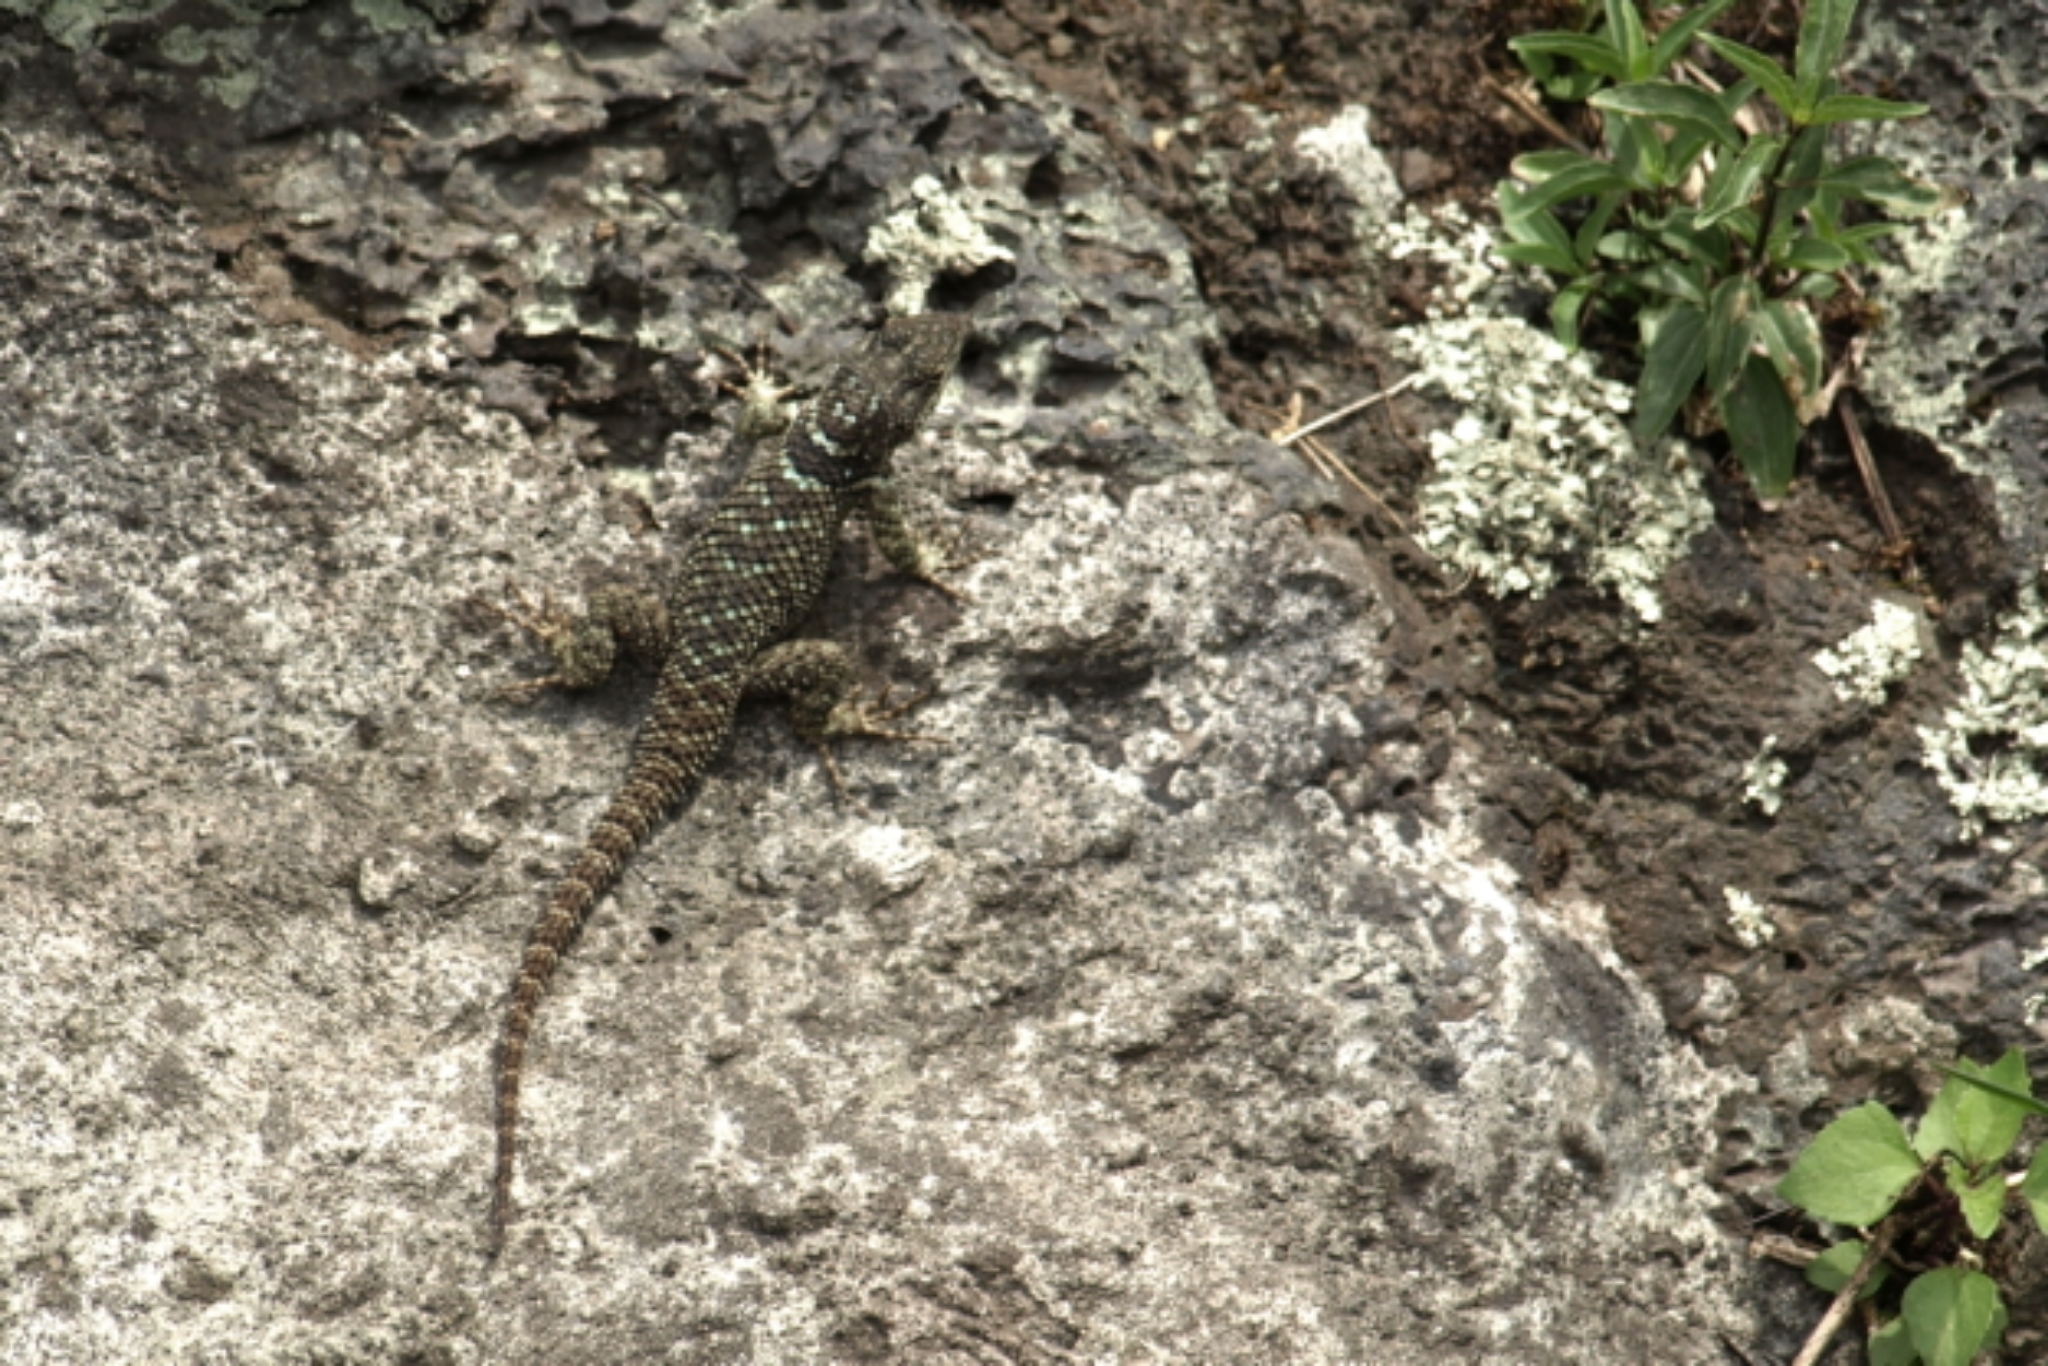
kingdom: Animalia
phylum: Chordata
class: Squamata
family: Phrynosomatidae
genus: Sceloporus
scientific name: Sceloporus torquatus
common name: Central plateau torquate lizard [melanogaster]
